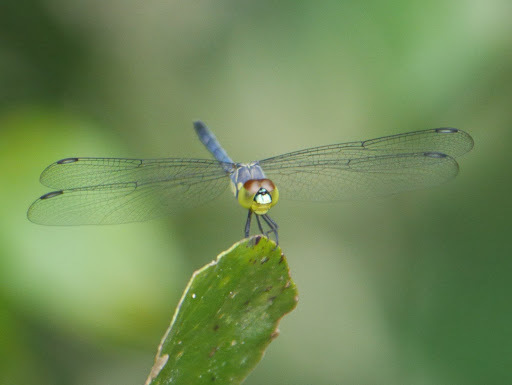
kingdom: Animalia
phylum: Arthropoda
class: Insecta
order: Odonata
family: Libellulidae
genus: Chalcostephia
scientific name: Chalcostephia flavifrons
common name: Inspector
